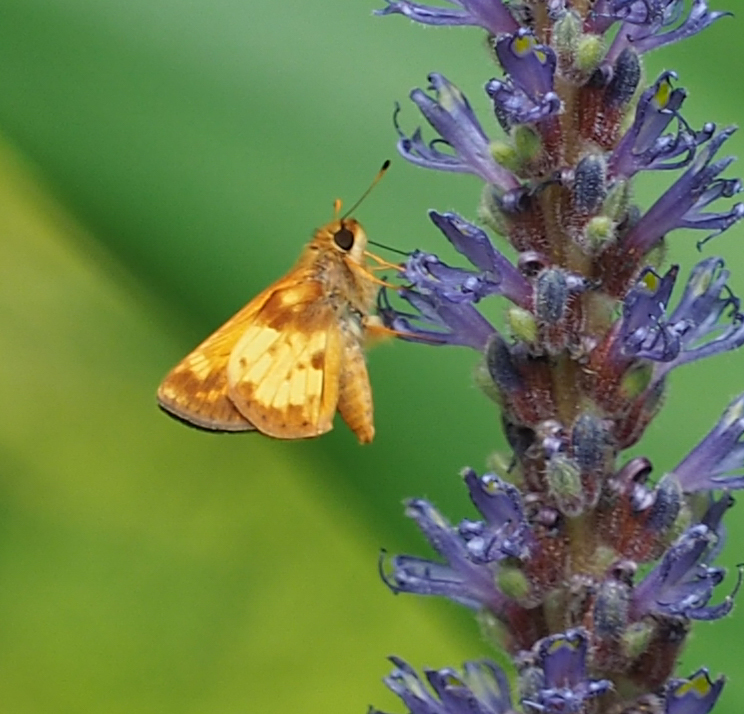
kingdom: Animalia
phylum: Arthropoda
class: Insecta
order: Lepidoptera
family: Hesperiidae
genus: Lon
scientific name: Lon zabulon
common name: Zabulon skipper
